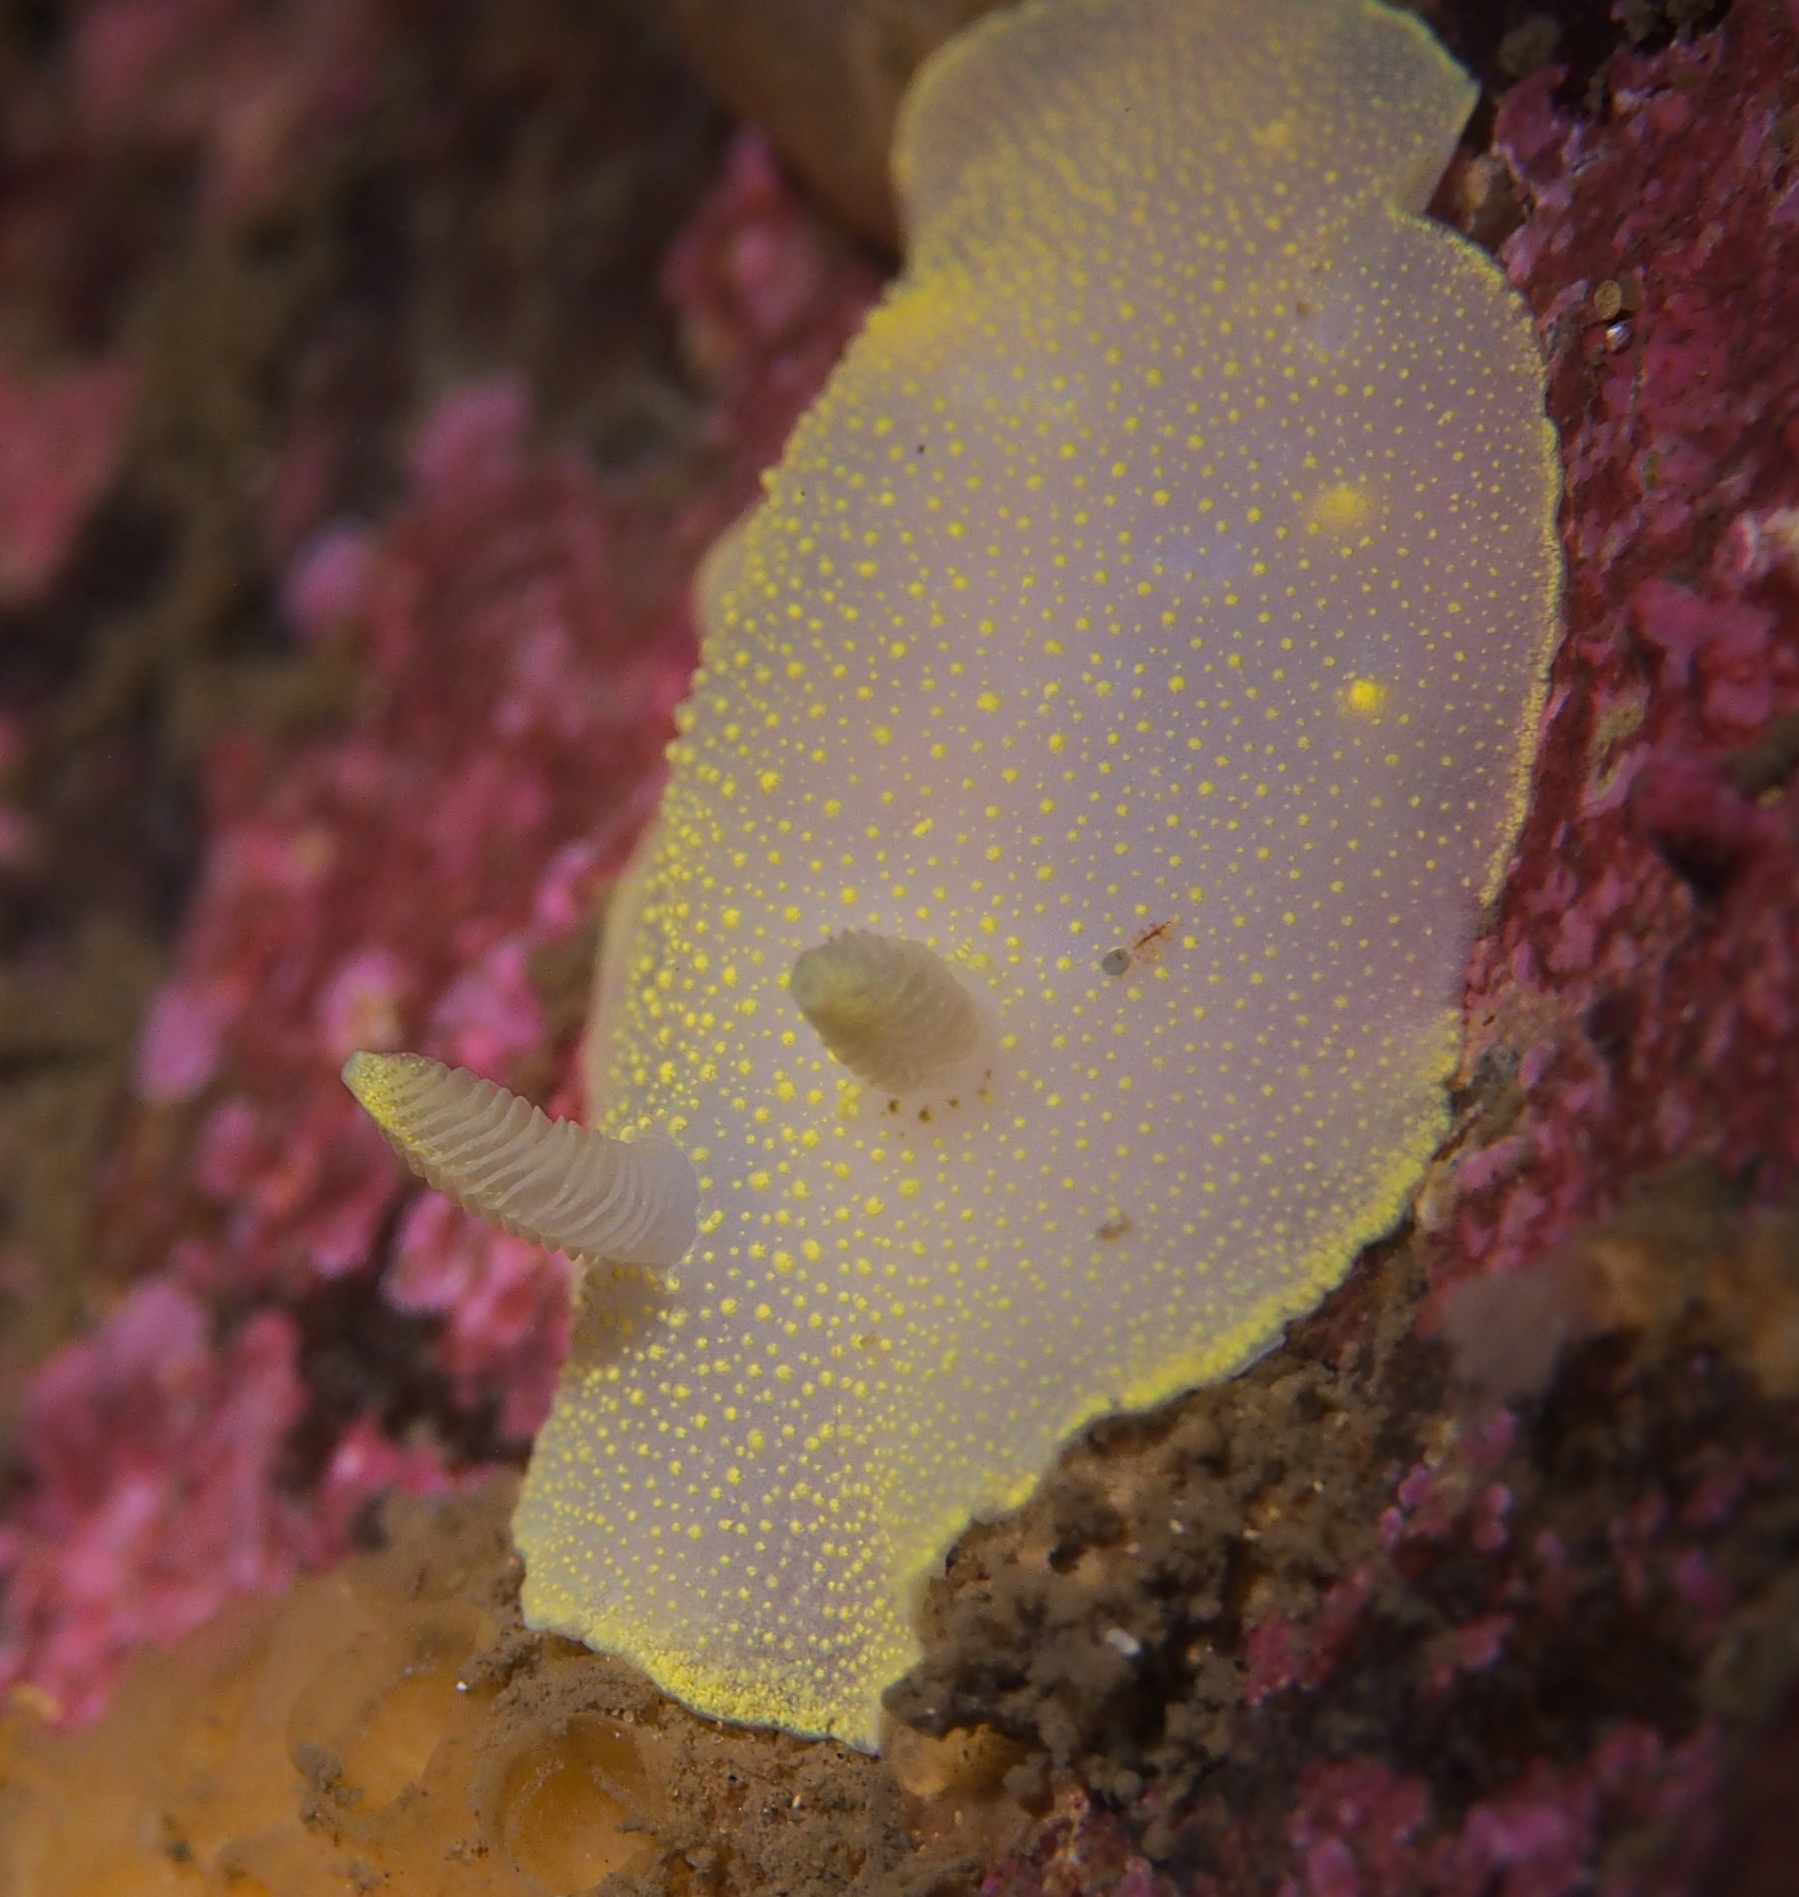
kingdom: Animalia
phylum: Mollusca
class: Gastropoda
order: Nudibranchia
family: Cadlinidae
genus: Cadlina
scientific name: Cadlina laevis
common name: White atlantic cadlina
